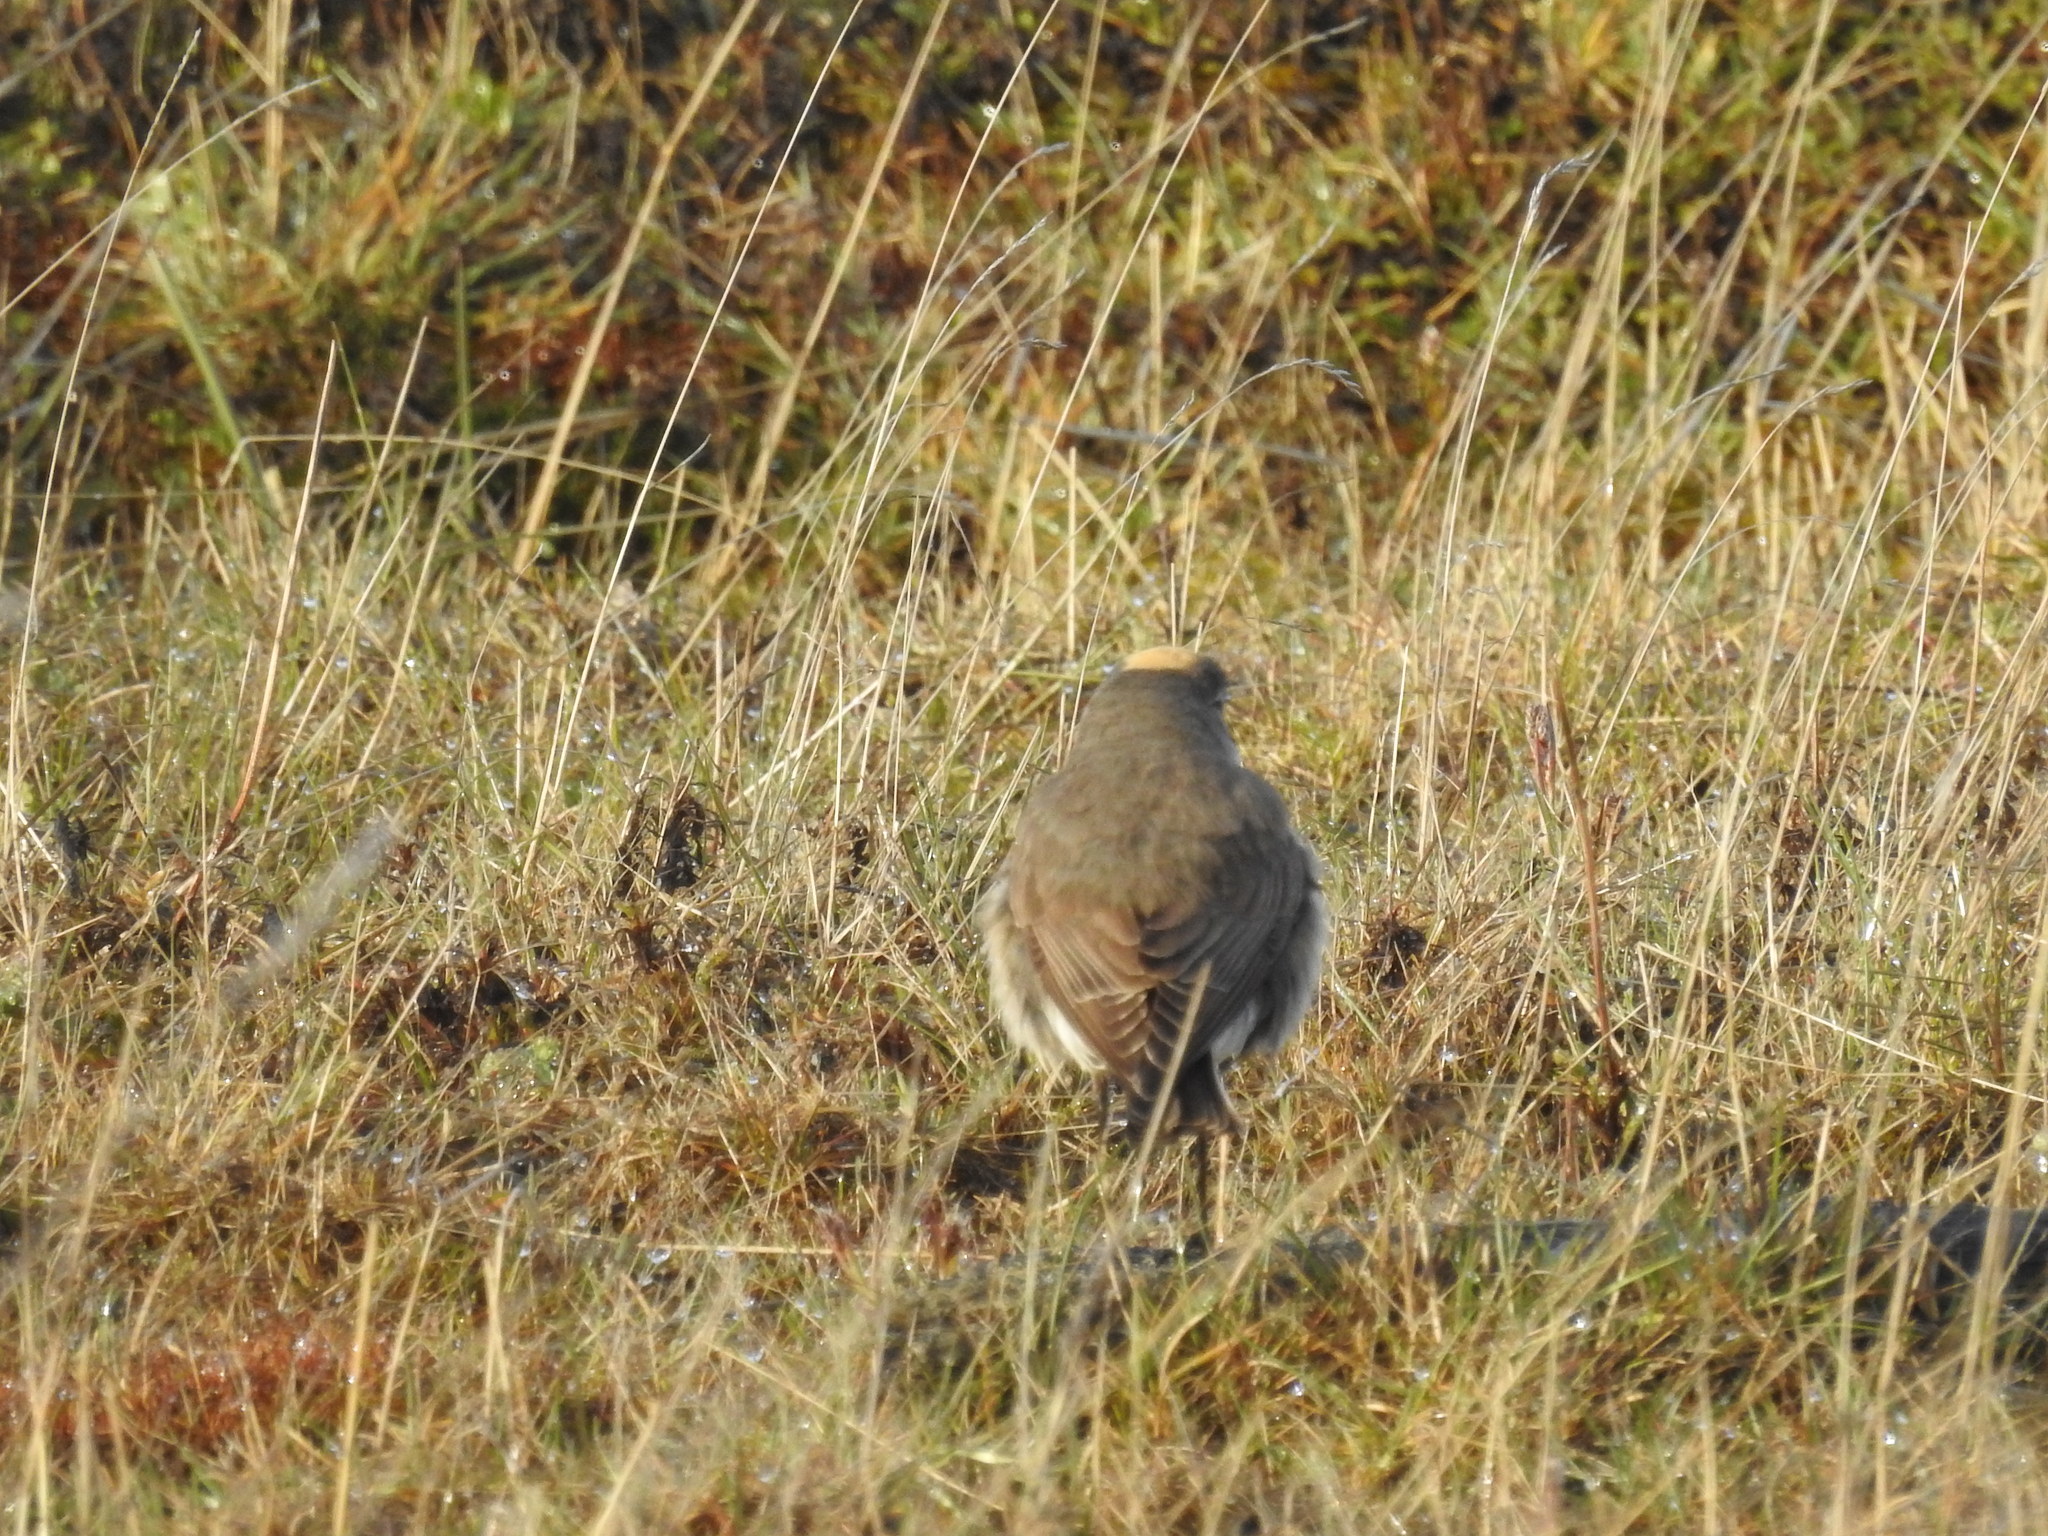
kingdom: Animalia
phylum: Chordata
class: Aves
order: Passeriformes
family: Tyrannidae
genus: Muscisaxicola
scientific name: Muscisaxicola flavinucha
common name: Ochre-naped ground tyrant
